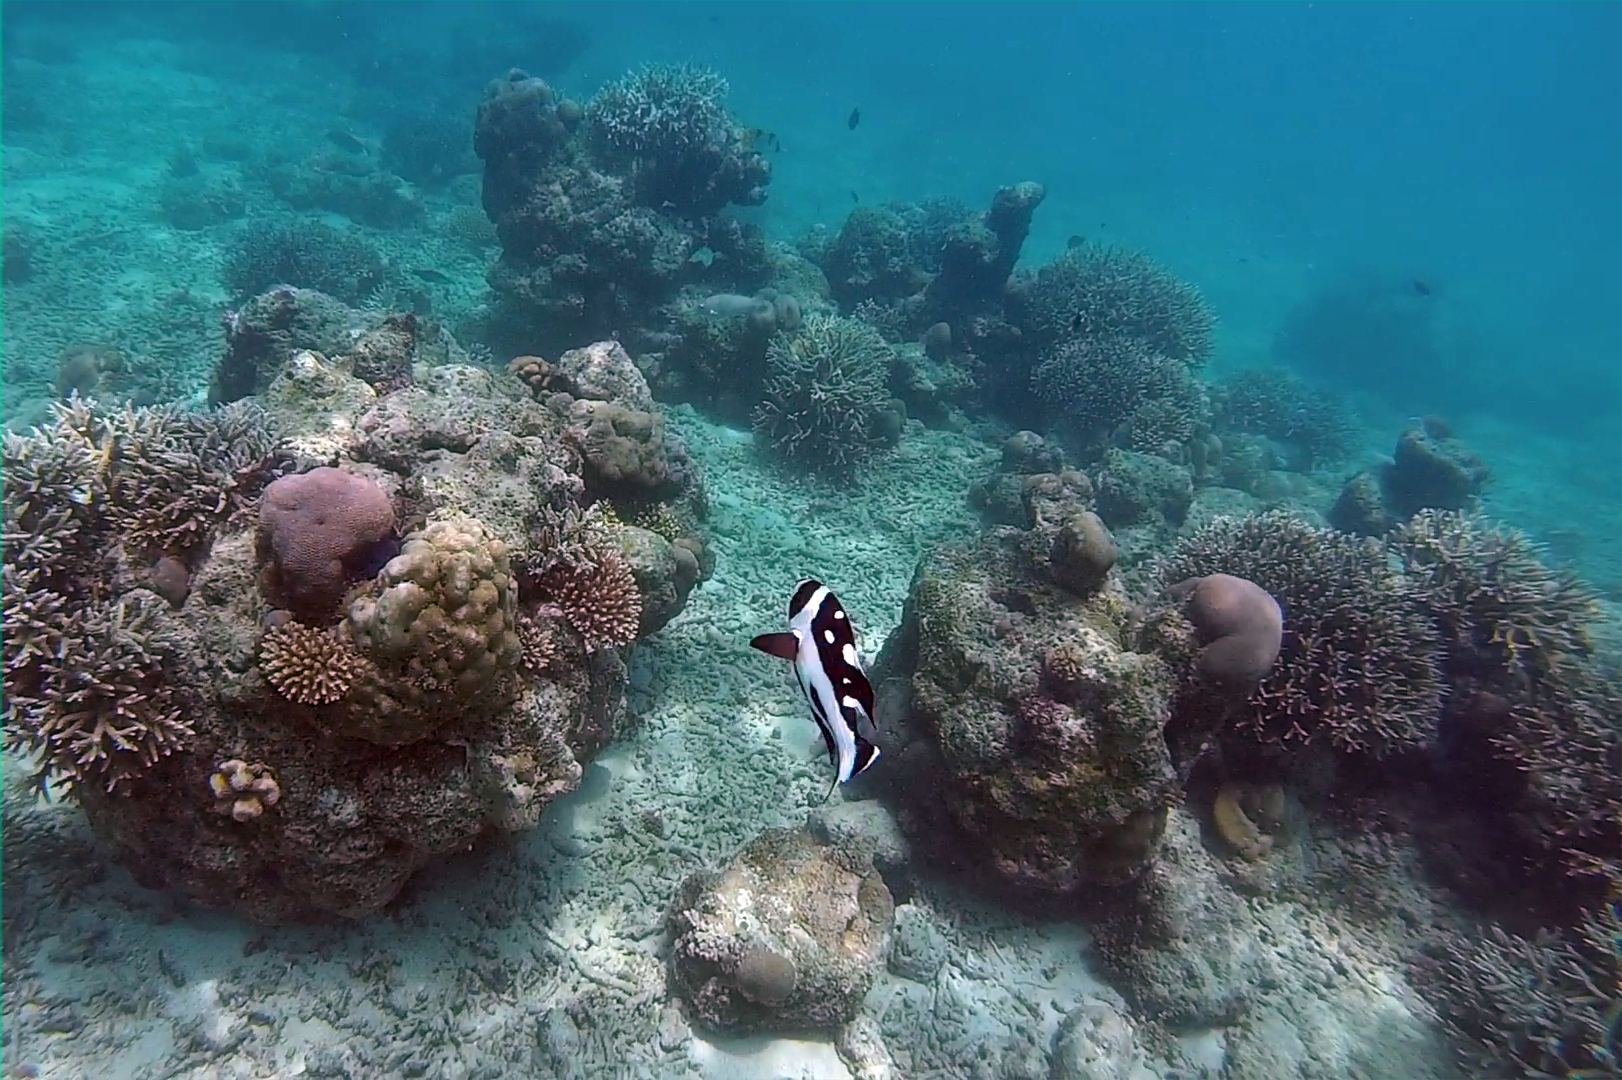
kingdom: Animalia
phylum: Chordata
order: Perciformes
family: Lutjanidae
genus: Macolor
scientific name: Macolor niger
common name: Black snapper
